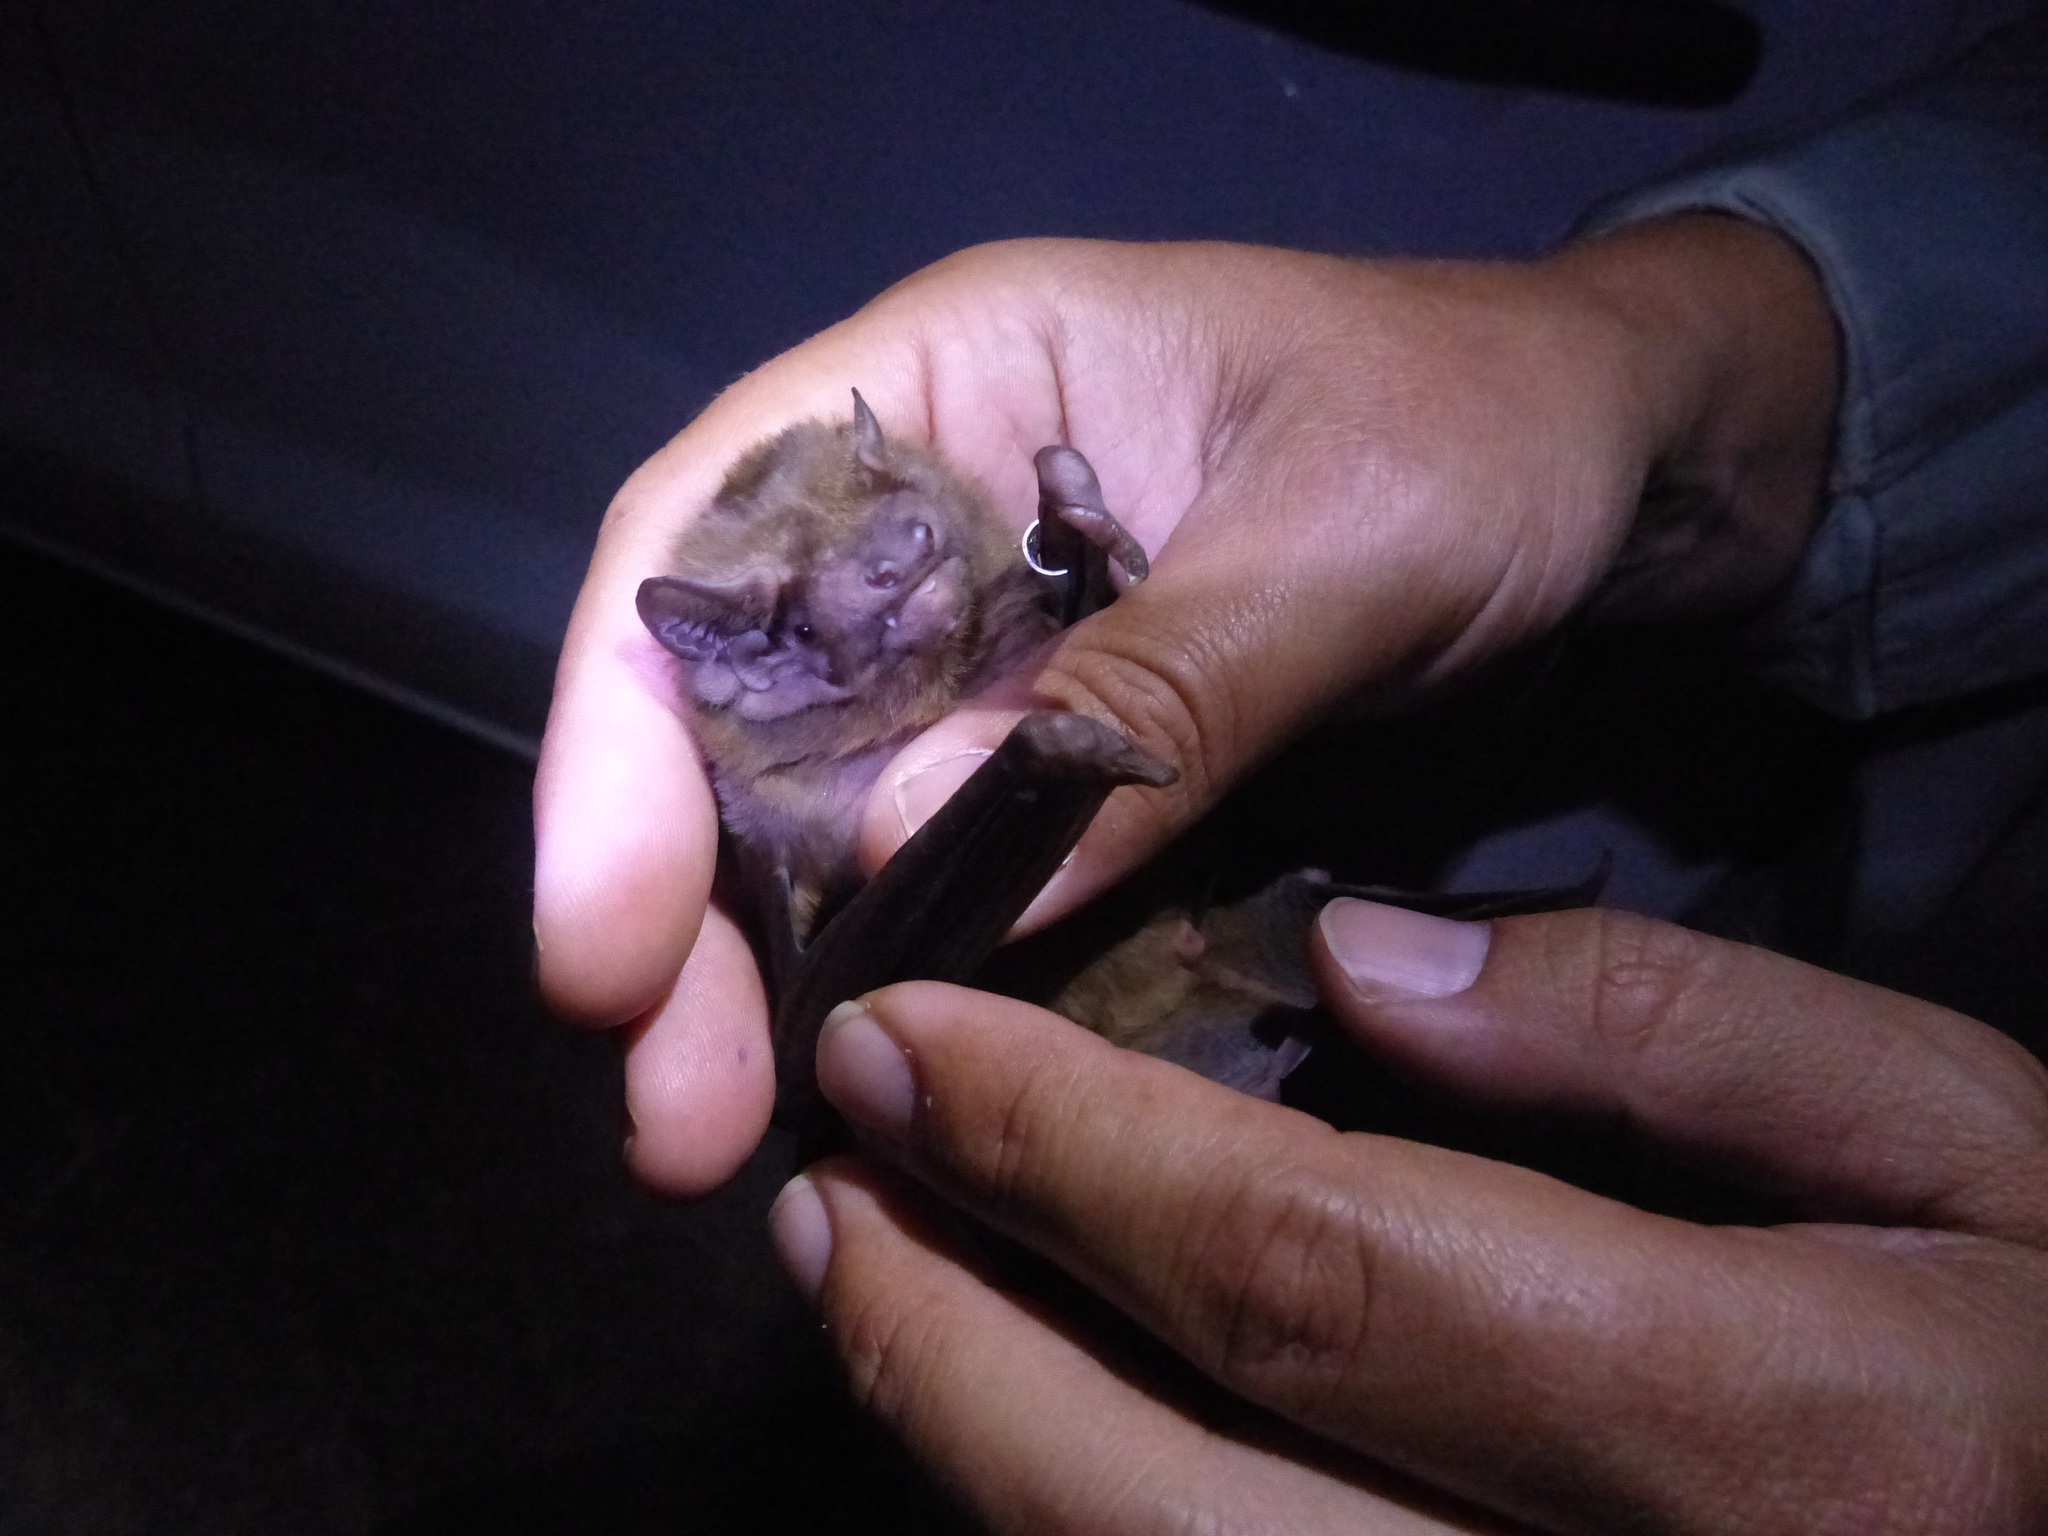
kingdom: Animalia
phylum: Chordata
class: Mammalia
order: Chiroptera
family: Vespertilionidae
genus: Nyctalus
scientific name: Nyctalus lasiopterus
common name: Giant noctule
